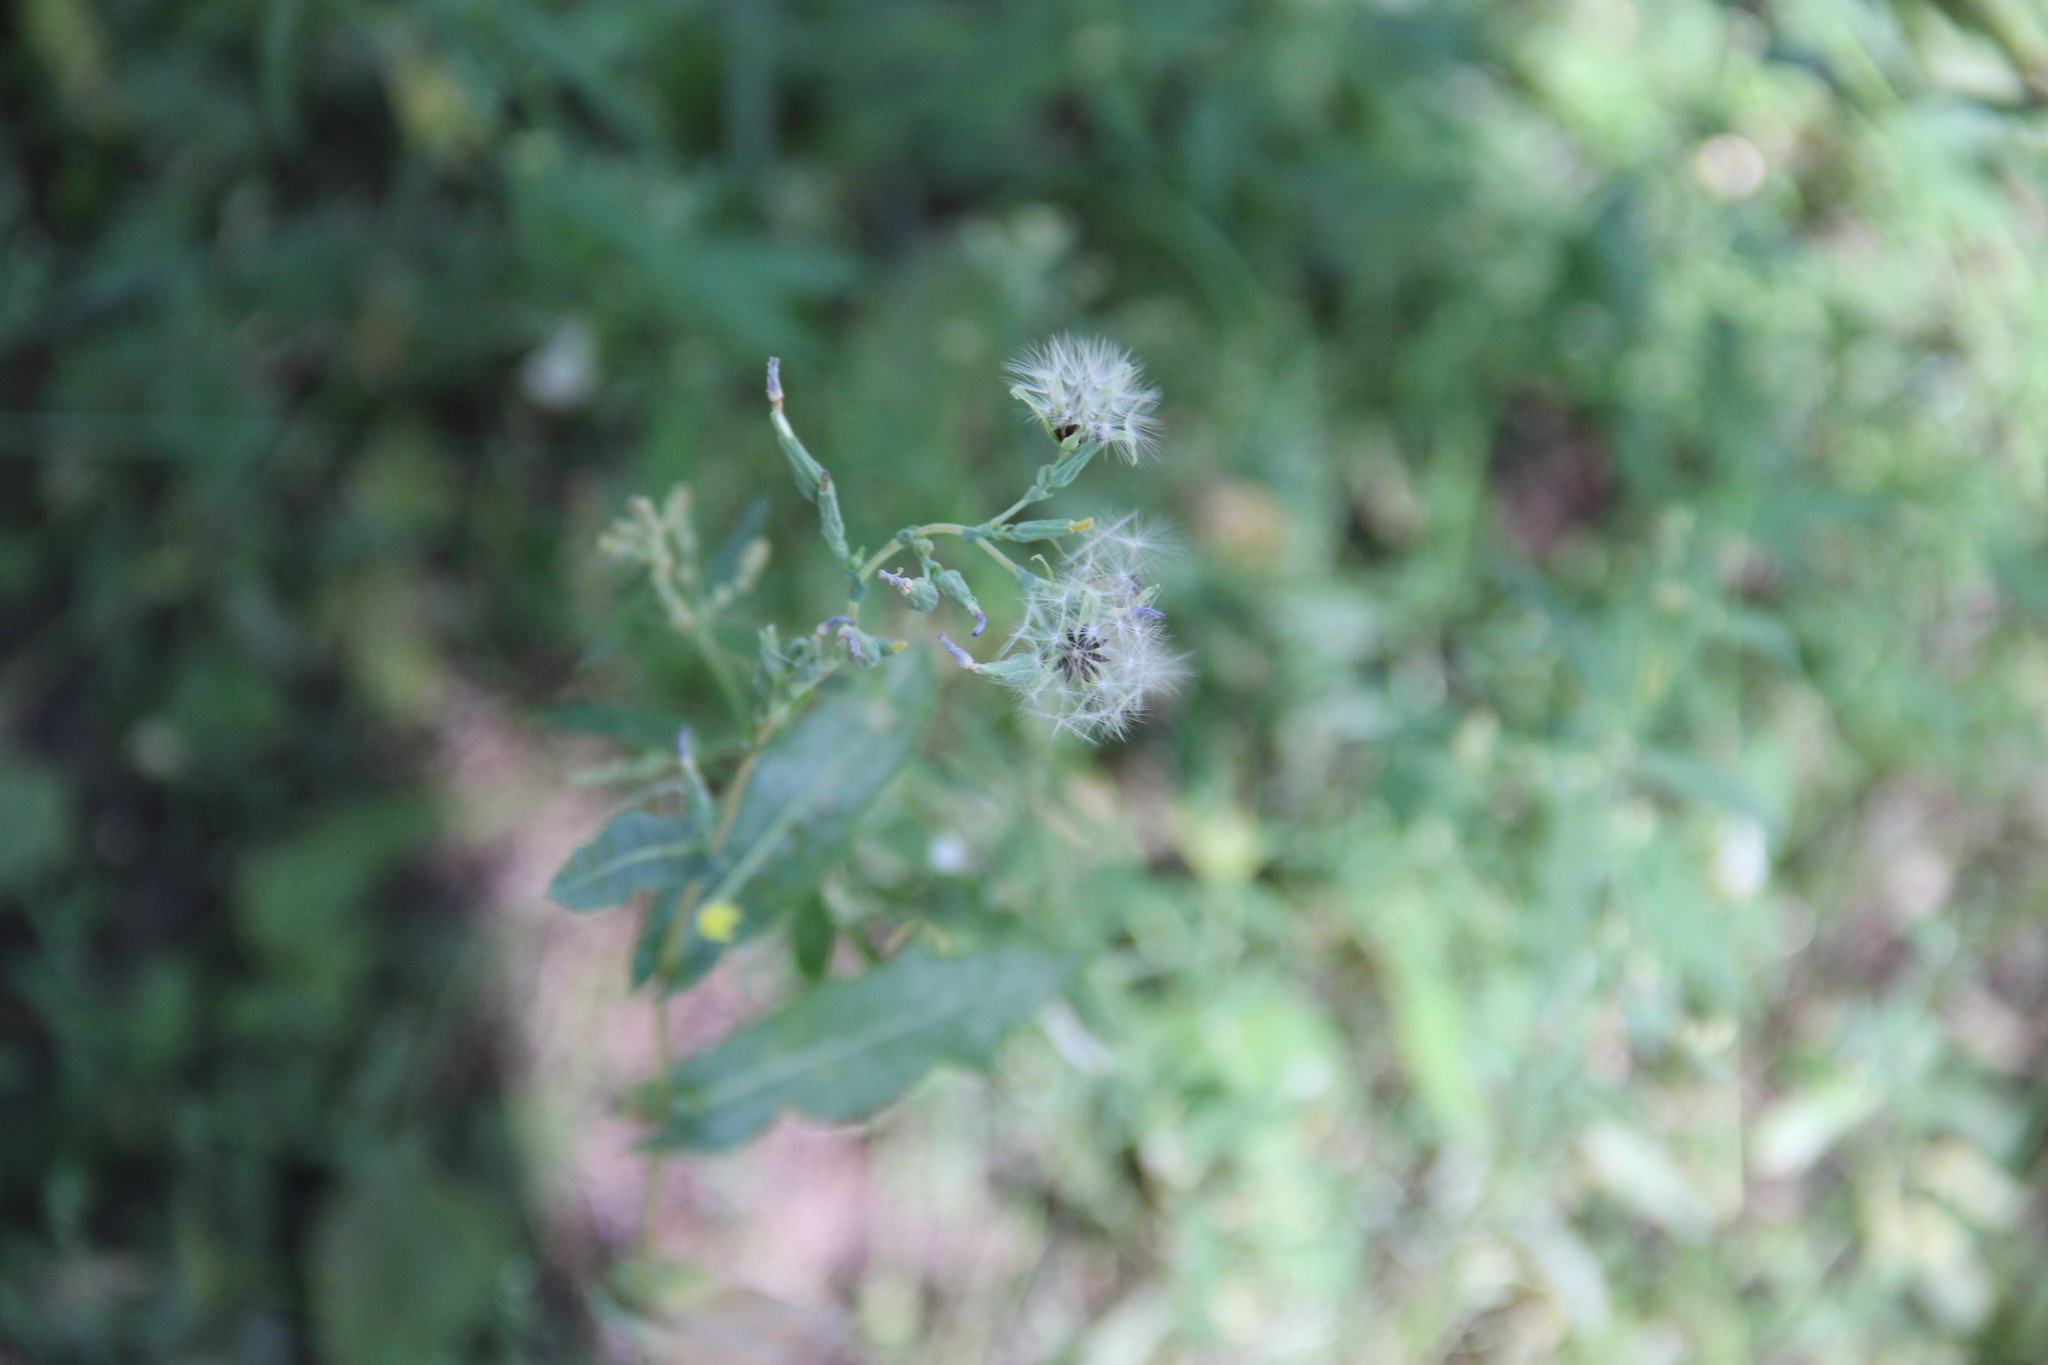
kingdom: Plantae
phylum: Tracheophyta
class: Magnoliopsida
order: Asterales
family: Asteraceae
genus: Lactuca
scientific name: Lactuca serriola
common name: Prickly lettuce
